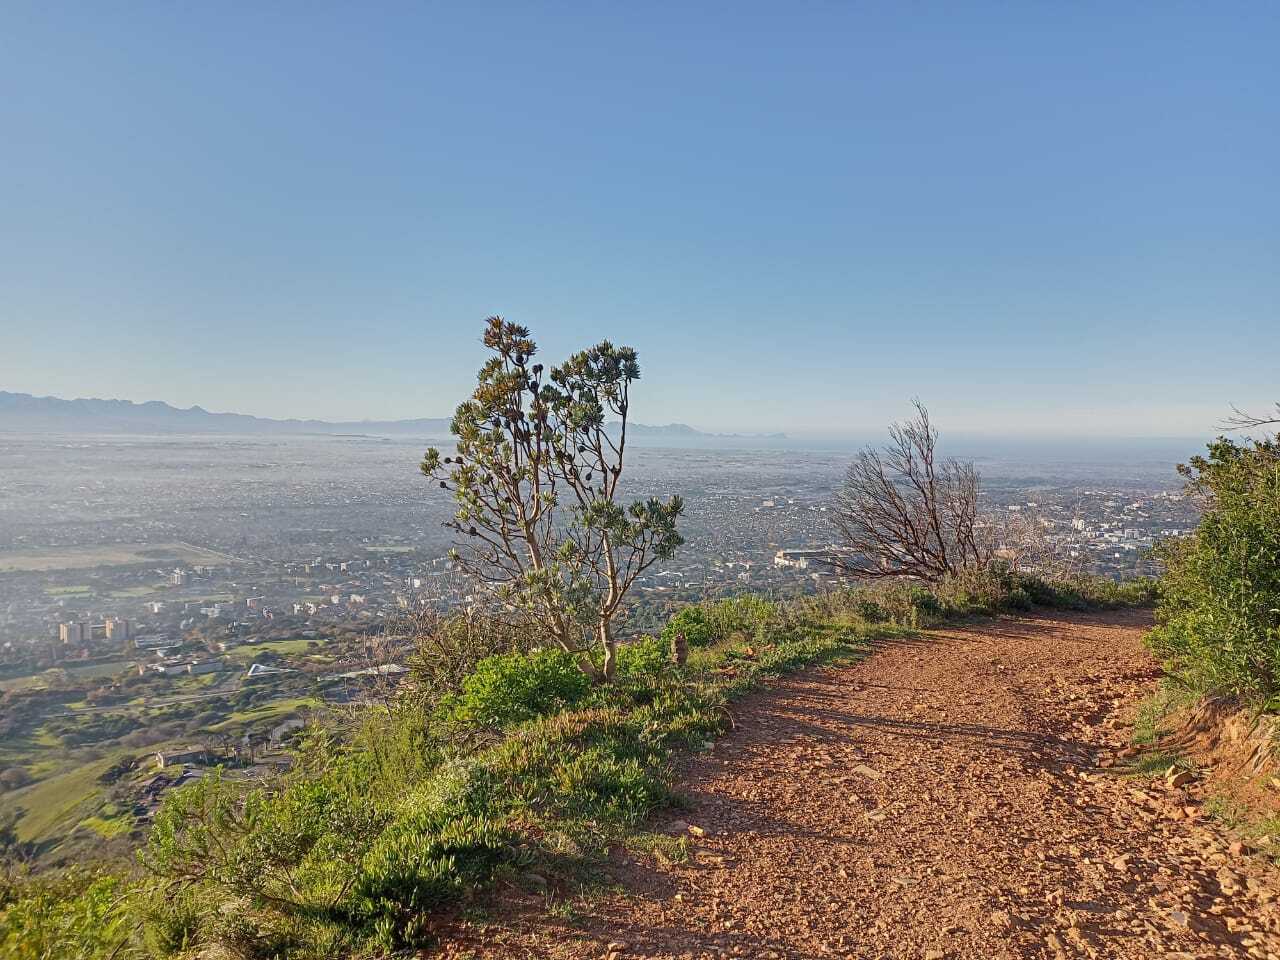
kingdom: Plantae
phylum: Tracheophyta
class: Magnoliopsida
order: Proteales
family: Proteaceae
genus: Leucadendron
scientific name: Leucadendron argenteum
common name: Cape silver tree
